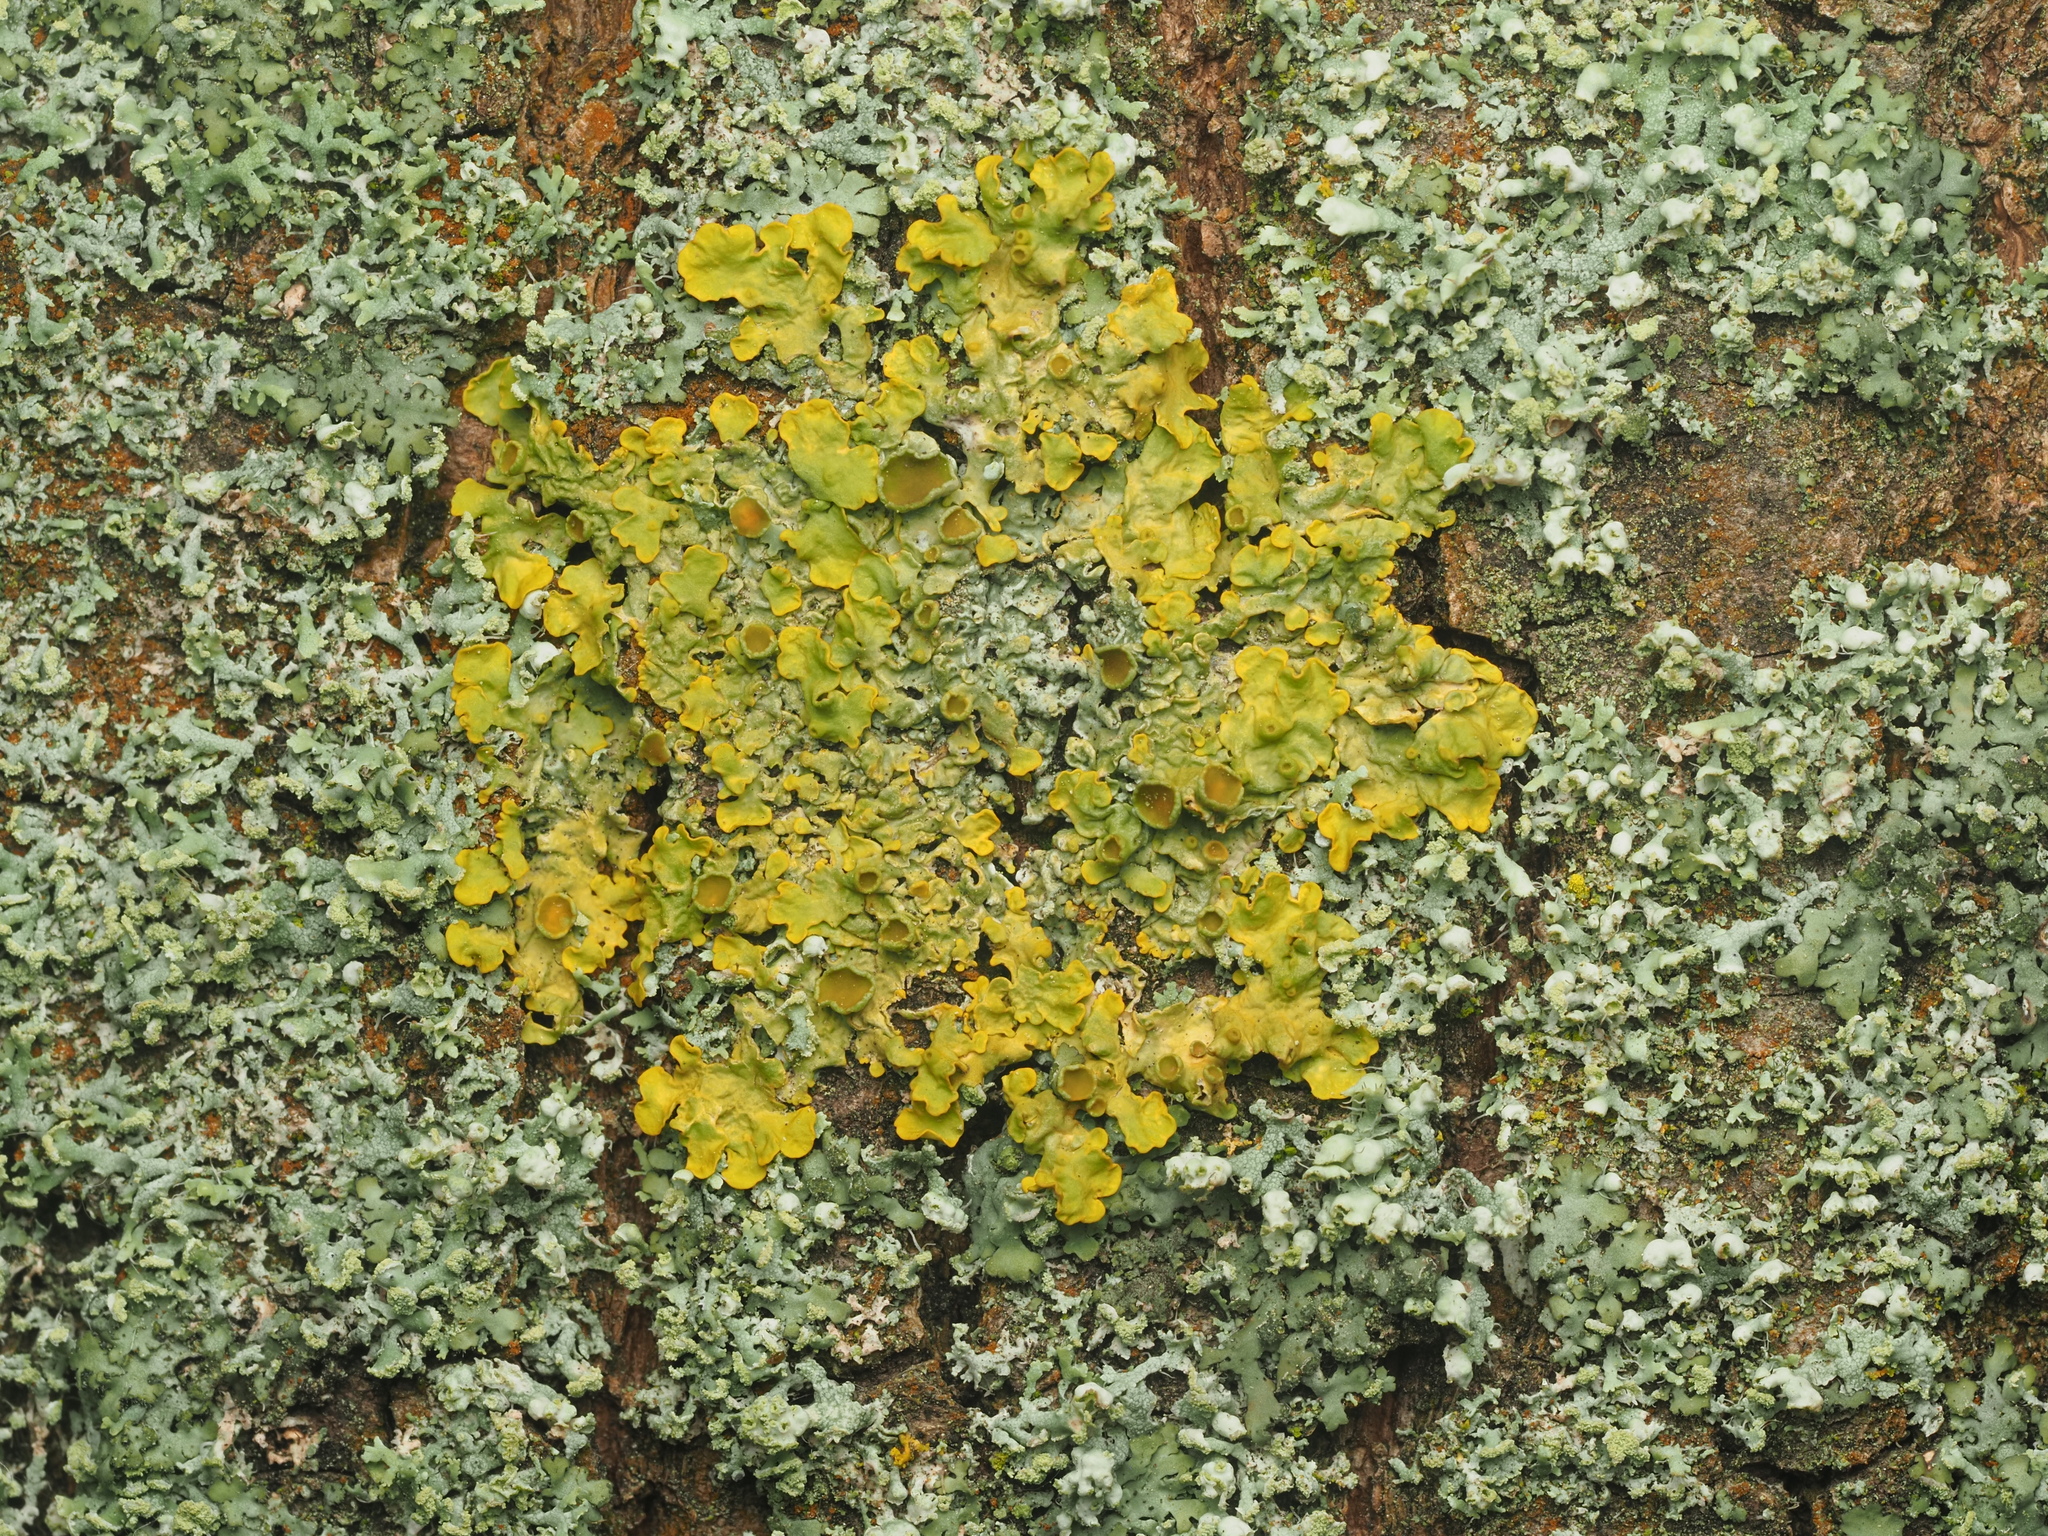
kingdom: Fungi
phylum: Ascomycota
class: Lecanoromycetes
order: Teloschistales
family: Teloschistaceae
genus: Xanthoria
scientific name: Xanthoria parietina
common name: Common orange lichen
